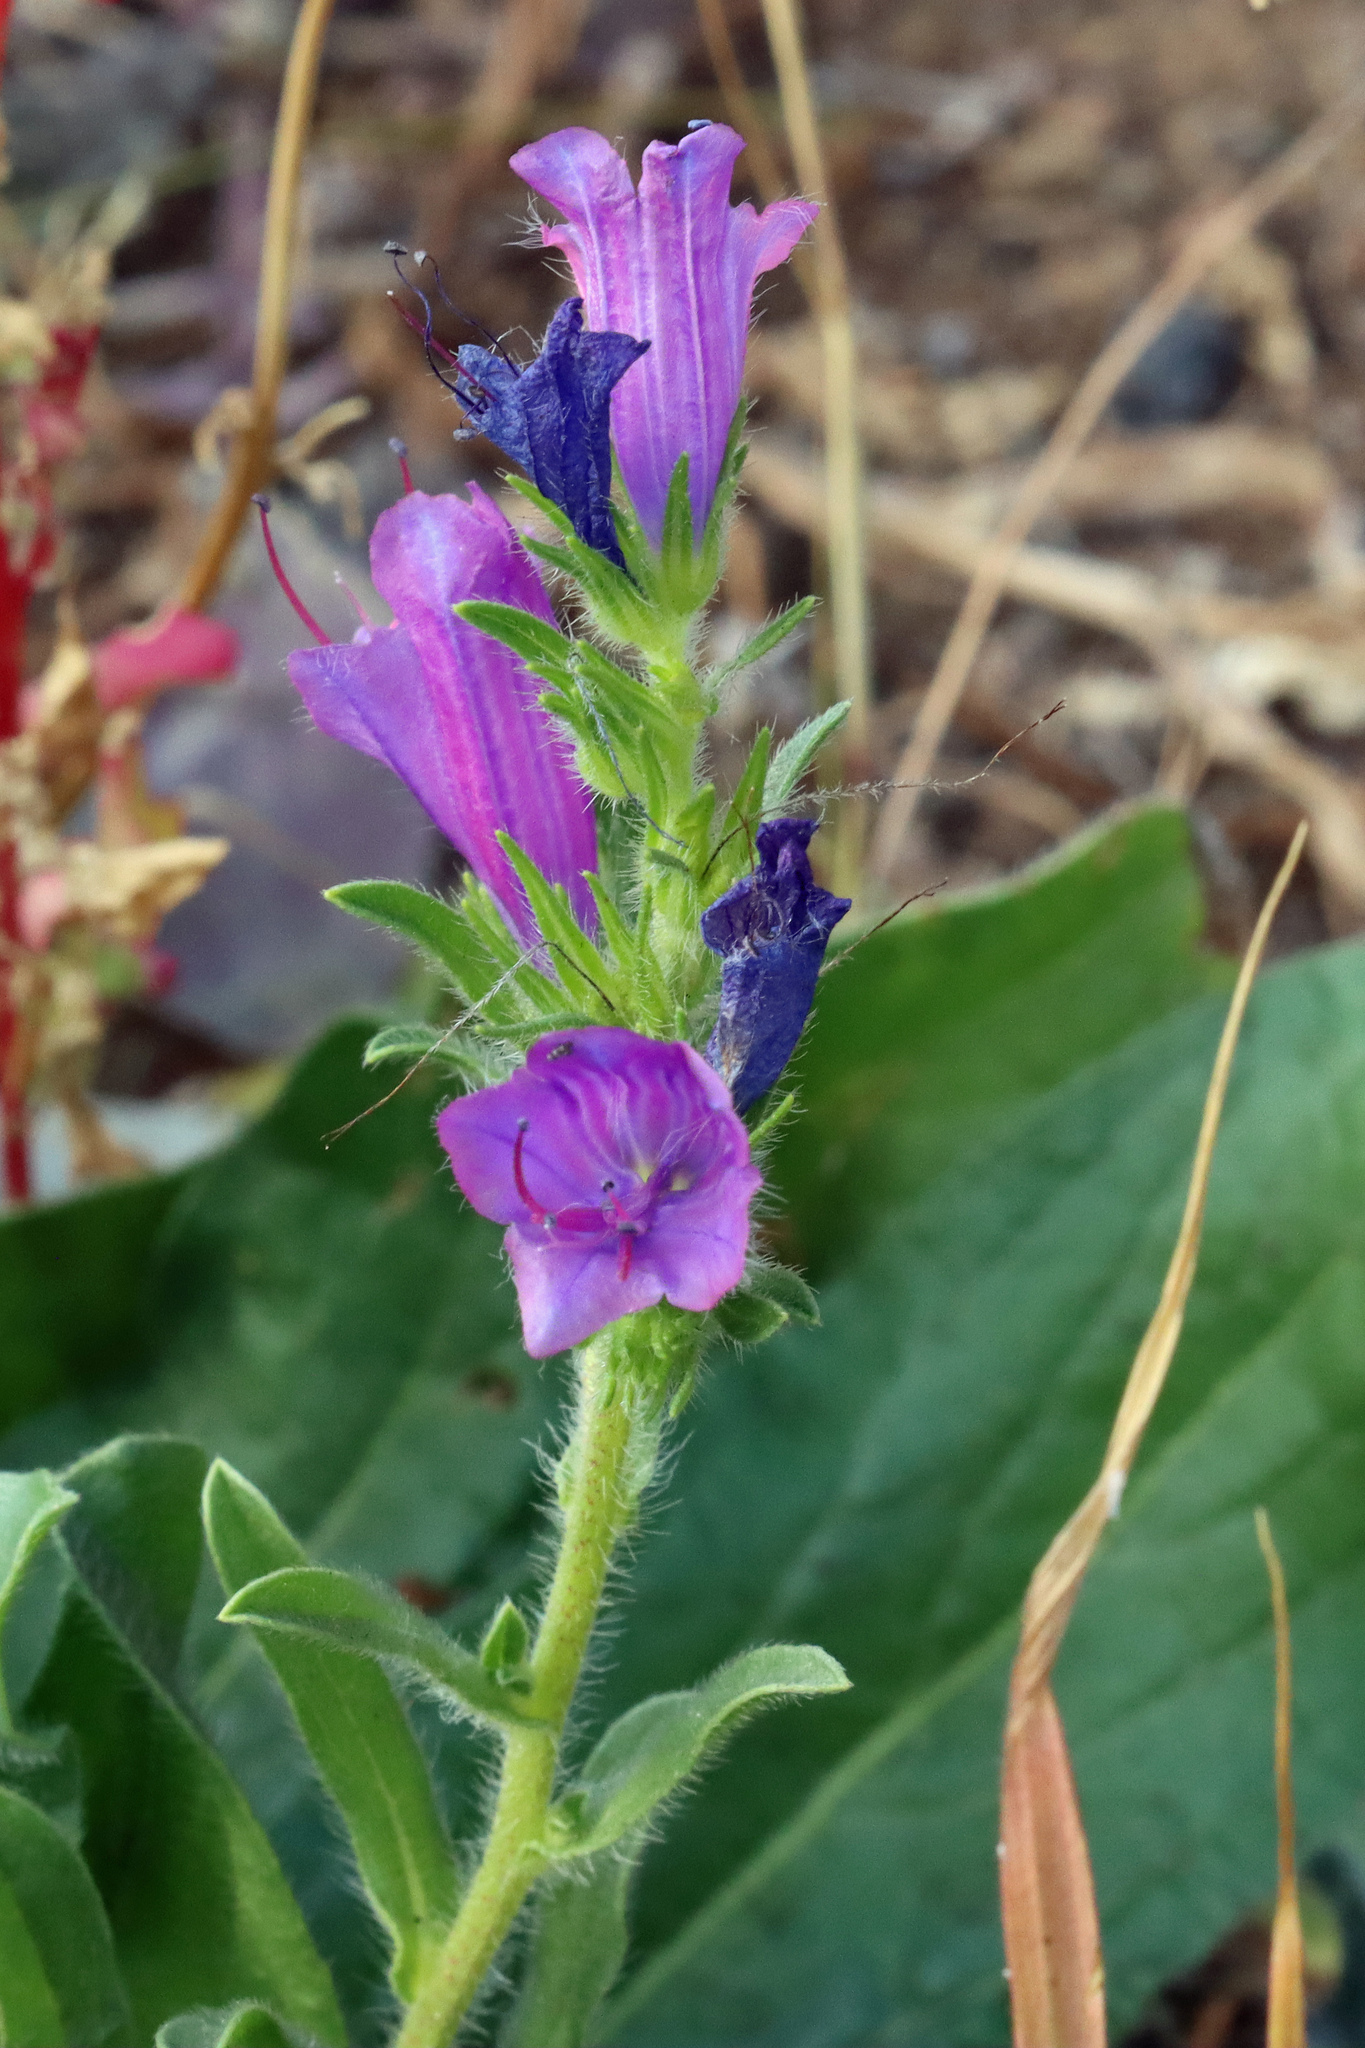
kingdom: Plantae
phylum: Tracheophyta
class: Magnoliopsida
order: Boraginales
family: Boraginaceae
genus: Echium
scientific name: Echium plantagineum
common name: Purple viper's-bugloss
